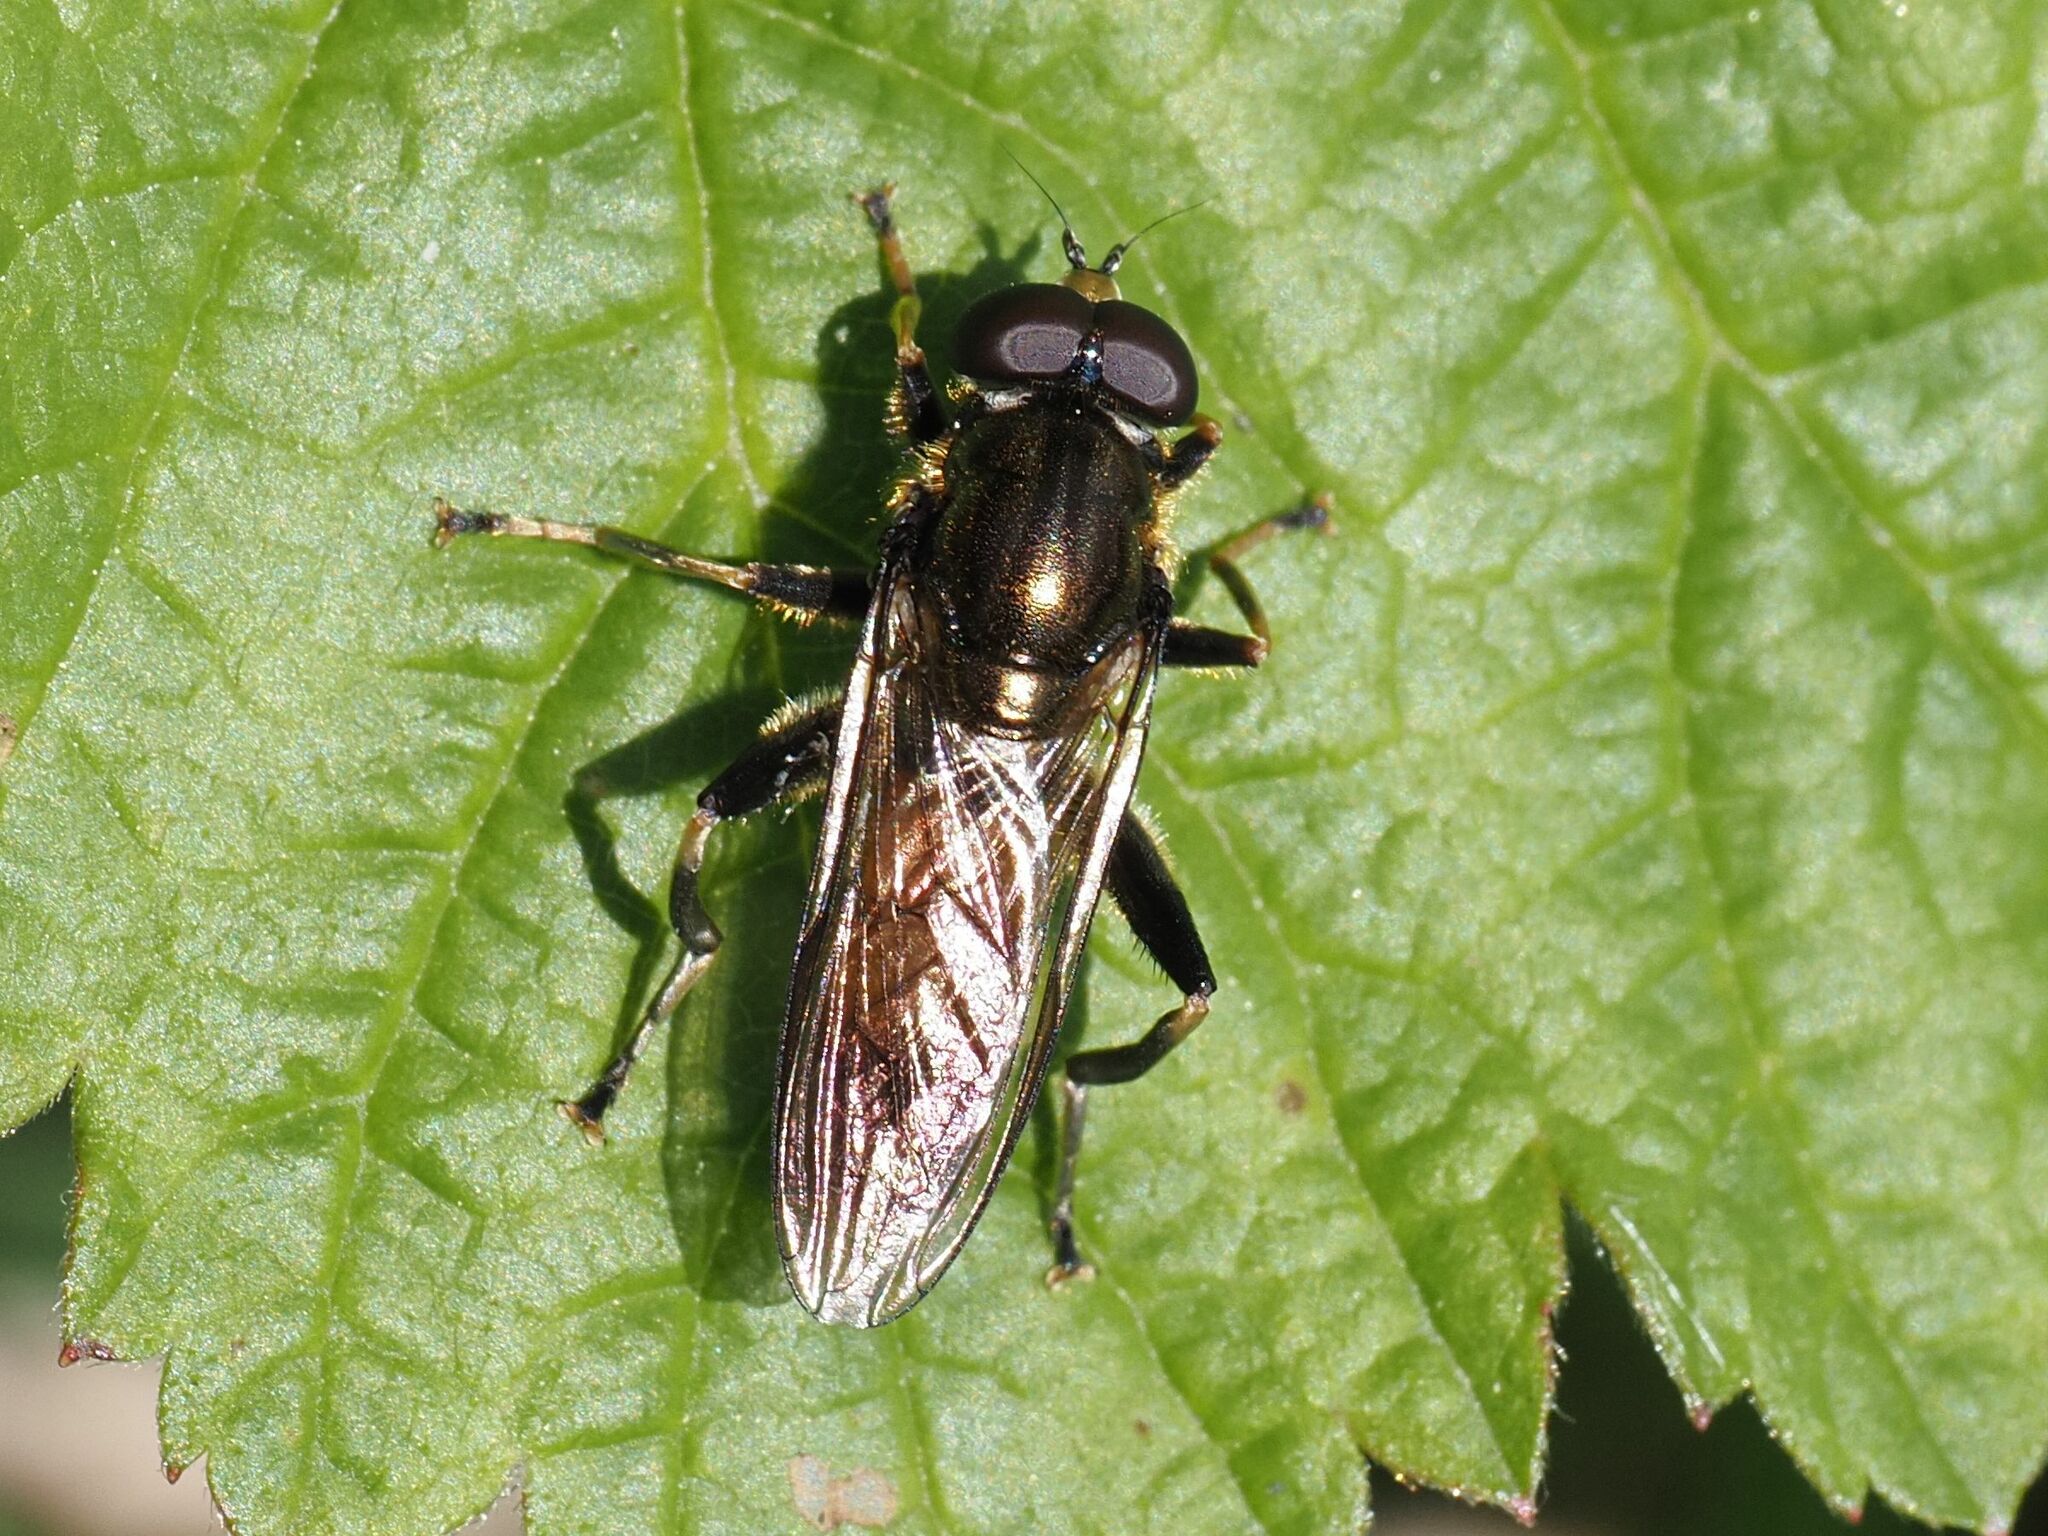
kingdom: Animalia
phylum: Arthropoda
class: Insecta
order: Diptera
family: Syrphidae
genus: Xylota
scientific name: Xylota segnis
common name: Brown-toed forest fly
